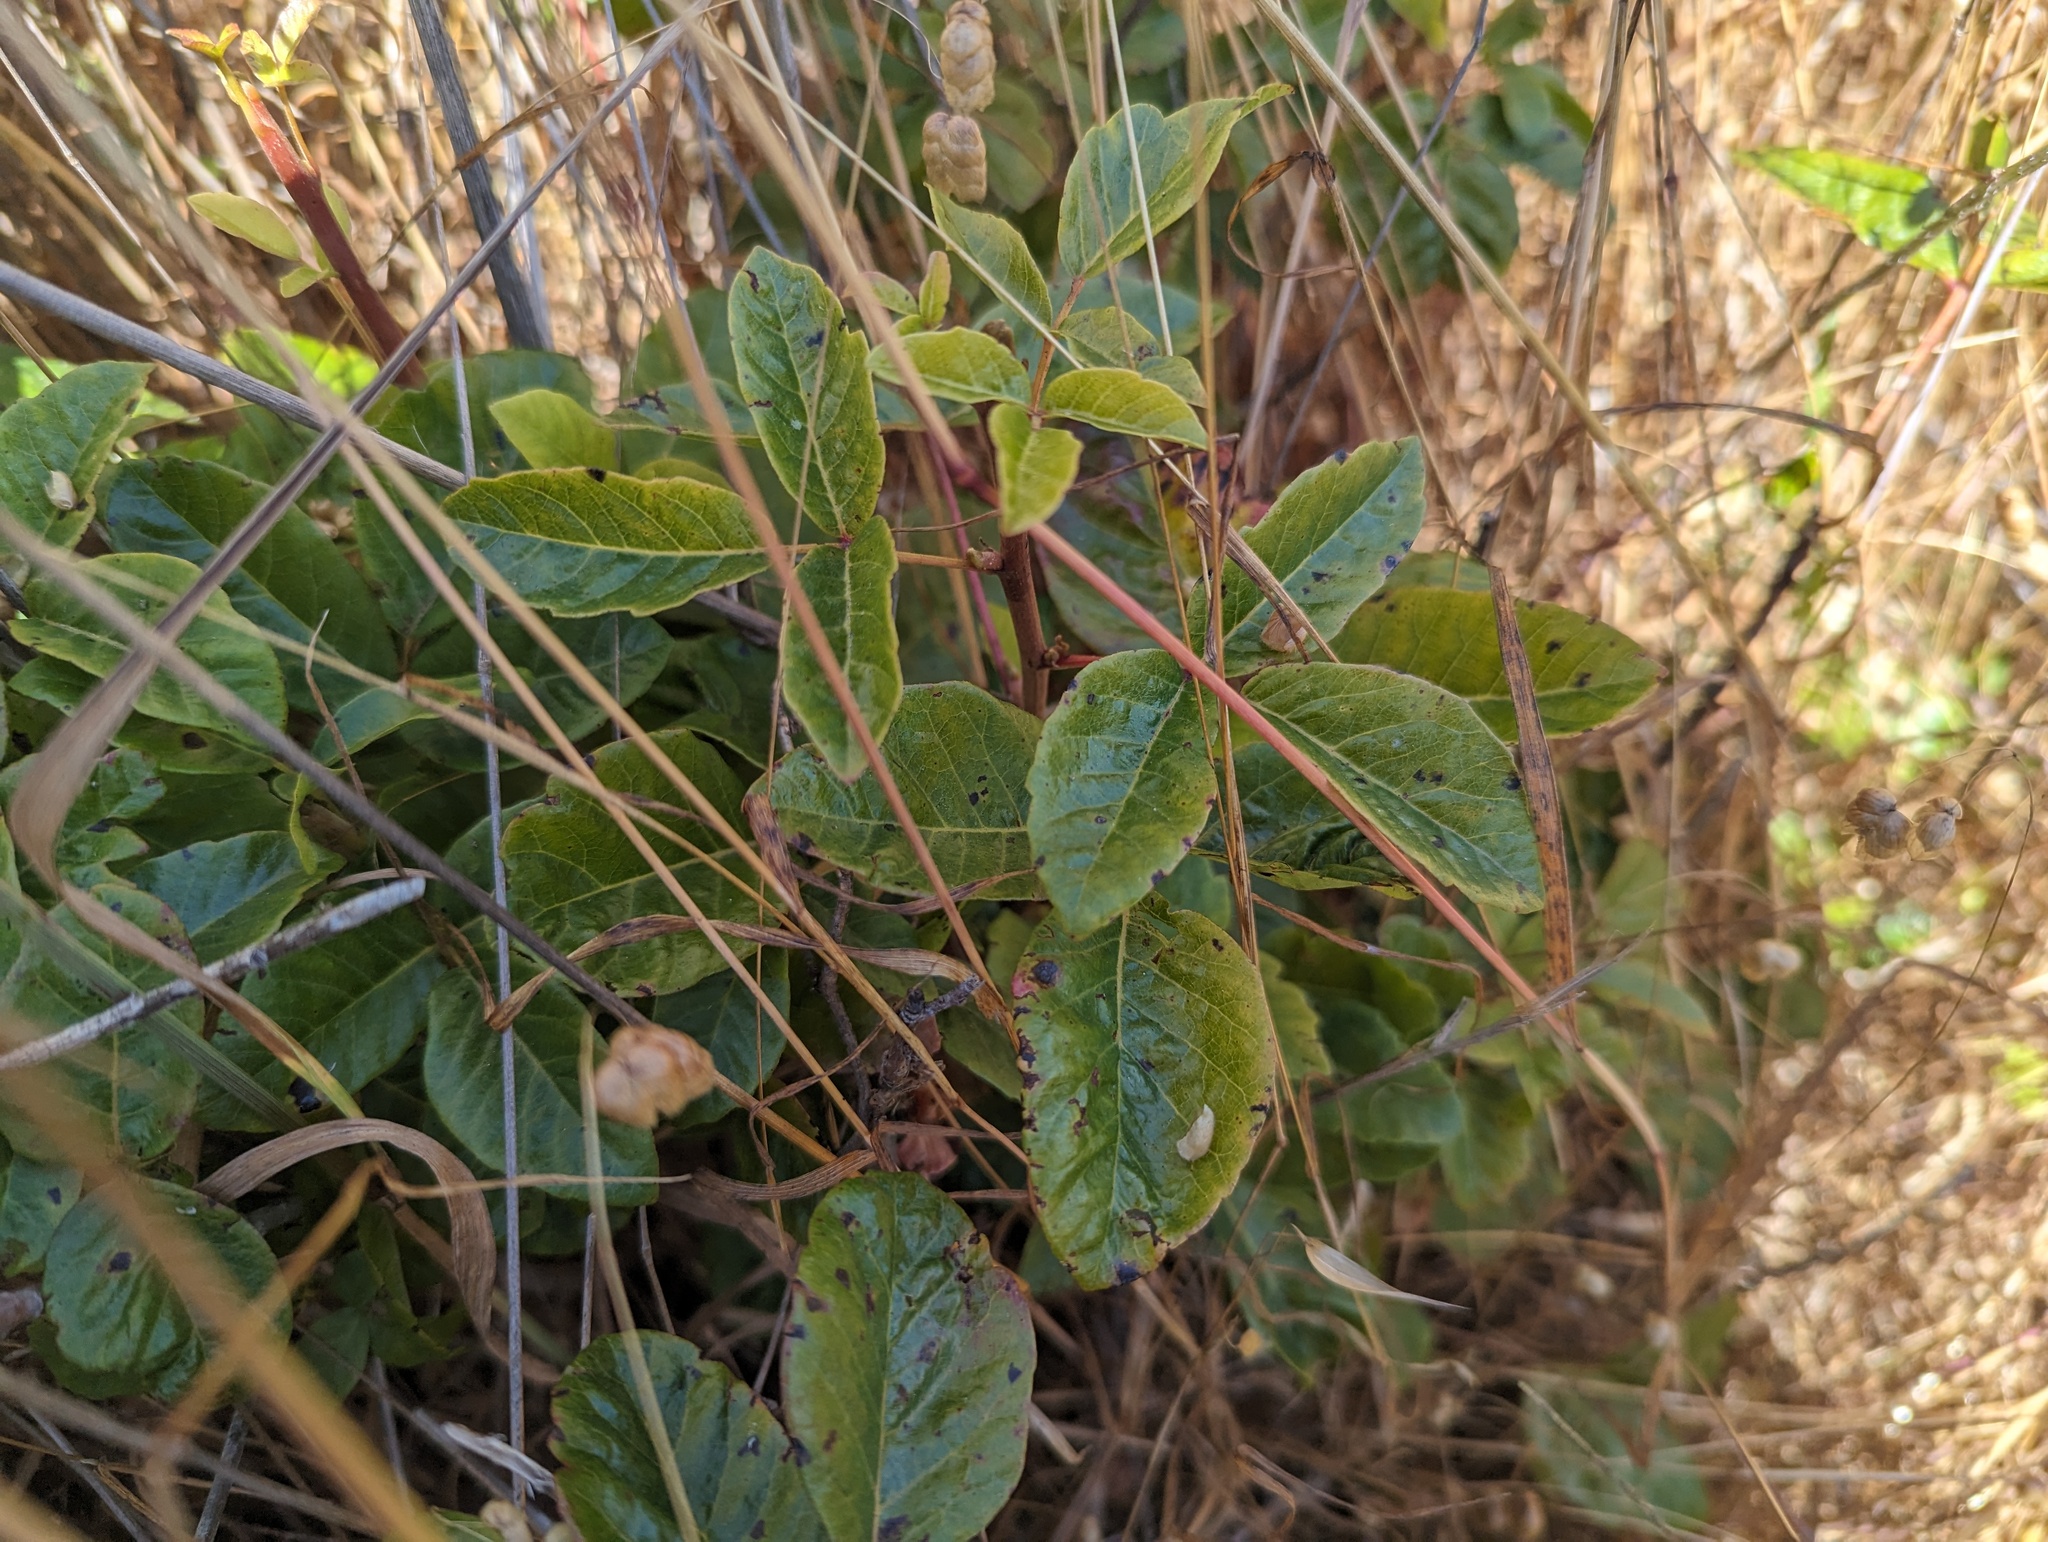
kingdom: Plantae
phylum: Tracheophyta
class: Magnoliopsida
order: Sapindales
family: Anacardiaceae
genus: Toxicodendron
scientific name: Toxicodendron diversilobum
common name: Pacific poison-oak
